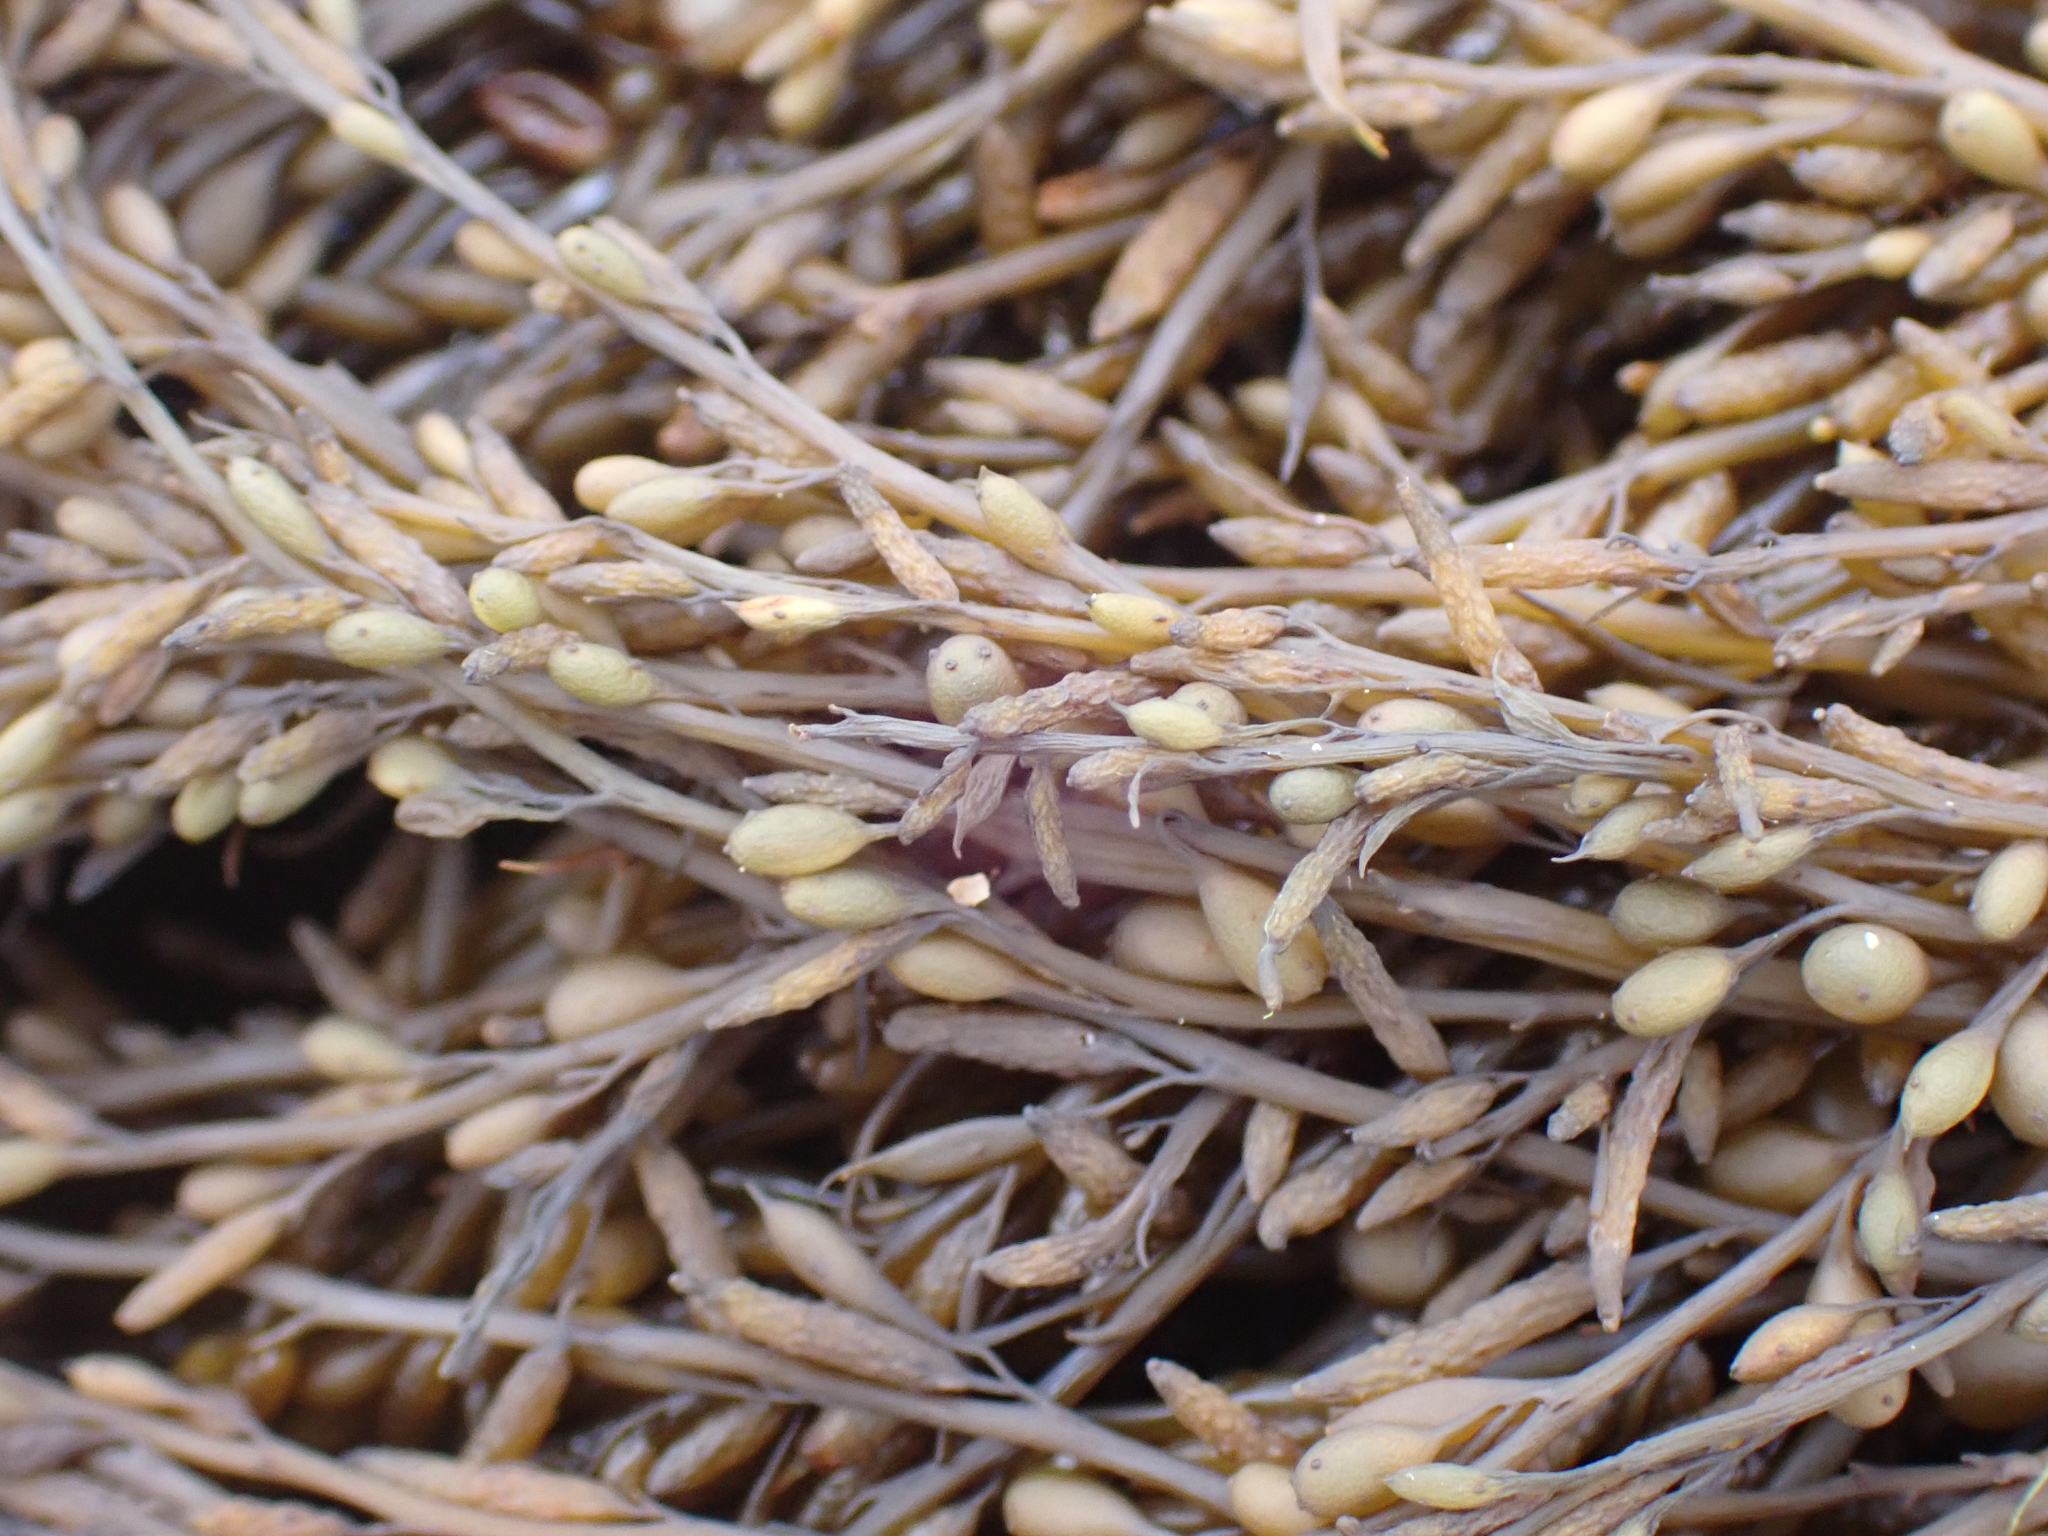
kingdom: Chromista
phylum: Ochrophyta
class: Phaeophyceae
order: Fucales
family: Sargassaceae
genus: Sargassum
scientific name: Sargassum muticum
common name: Japweed
